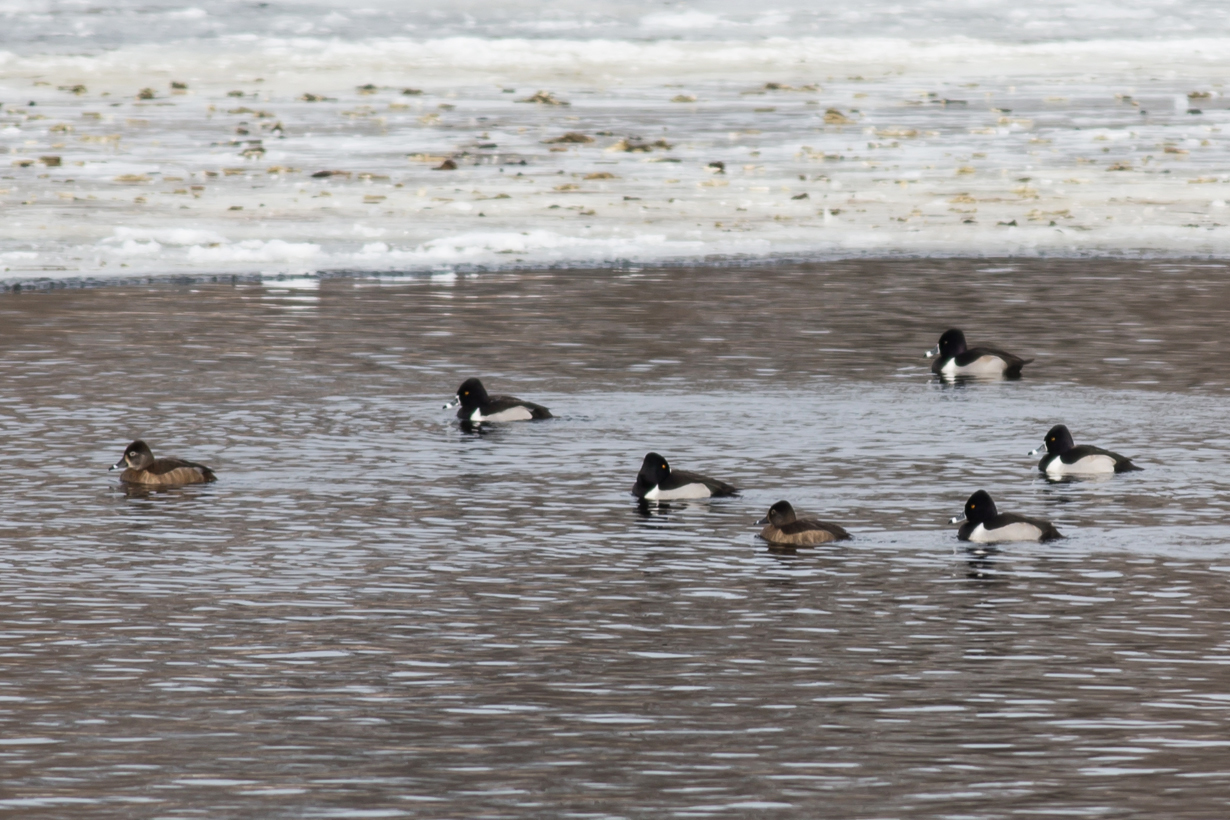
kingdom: Animalia
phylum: Chordata
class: Aves
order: Anseriformes
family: Anatidae
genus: Aythya
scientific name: Aythya collaris
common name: Ring-necked duck
